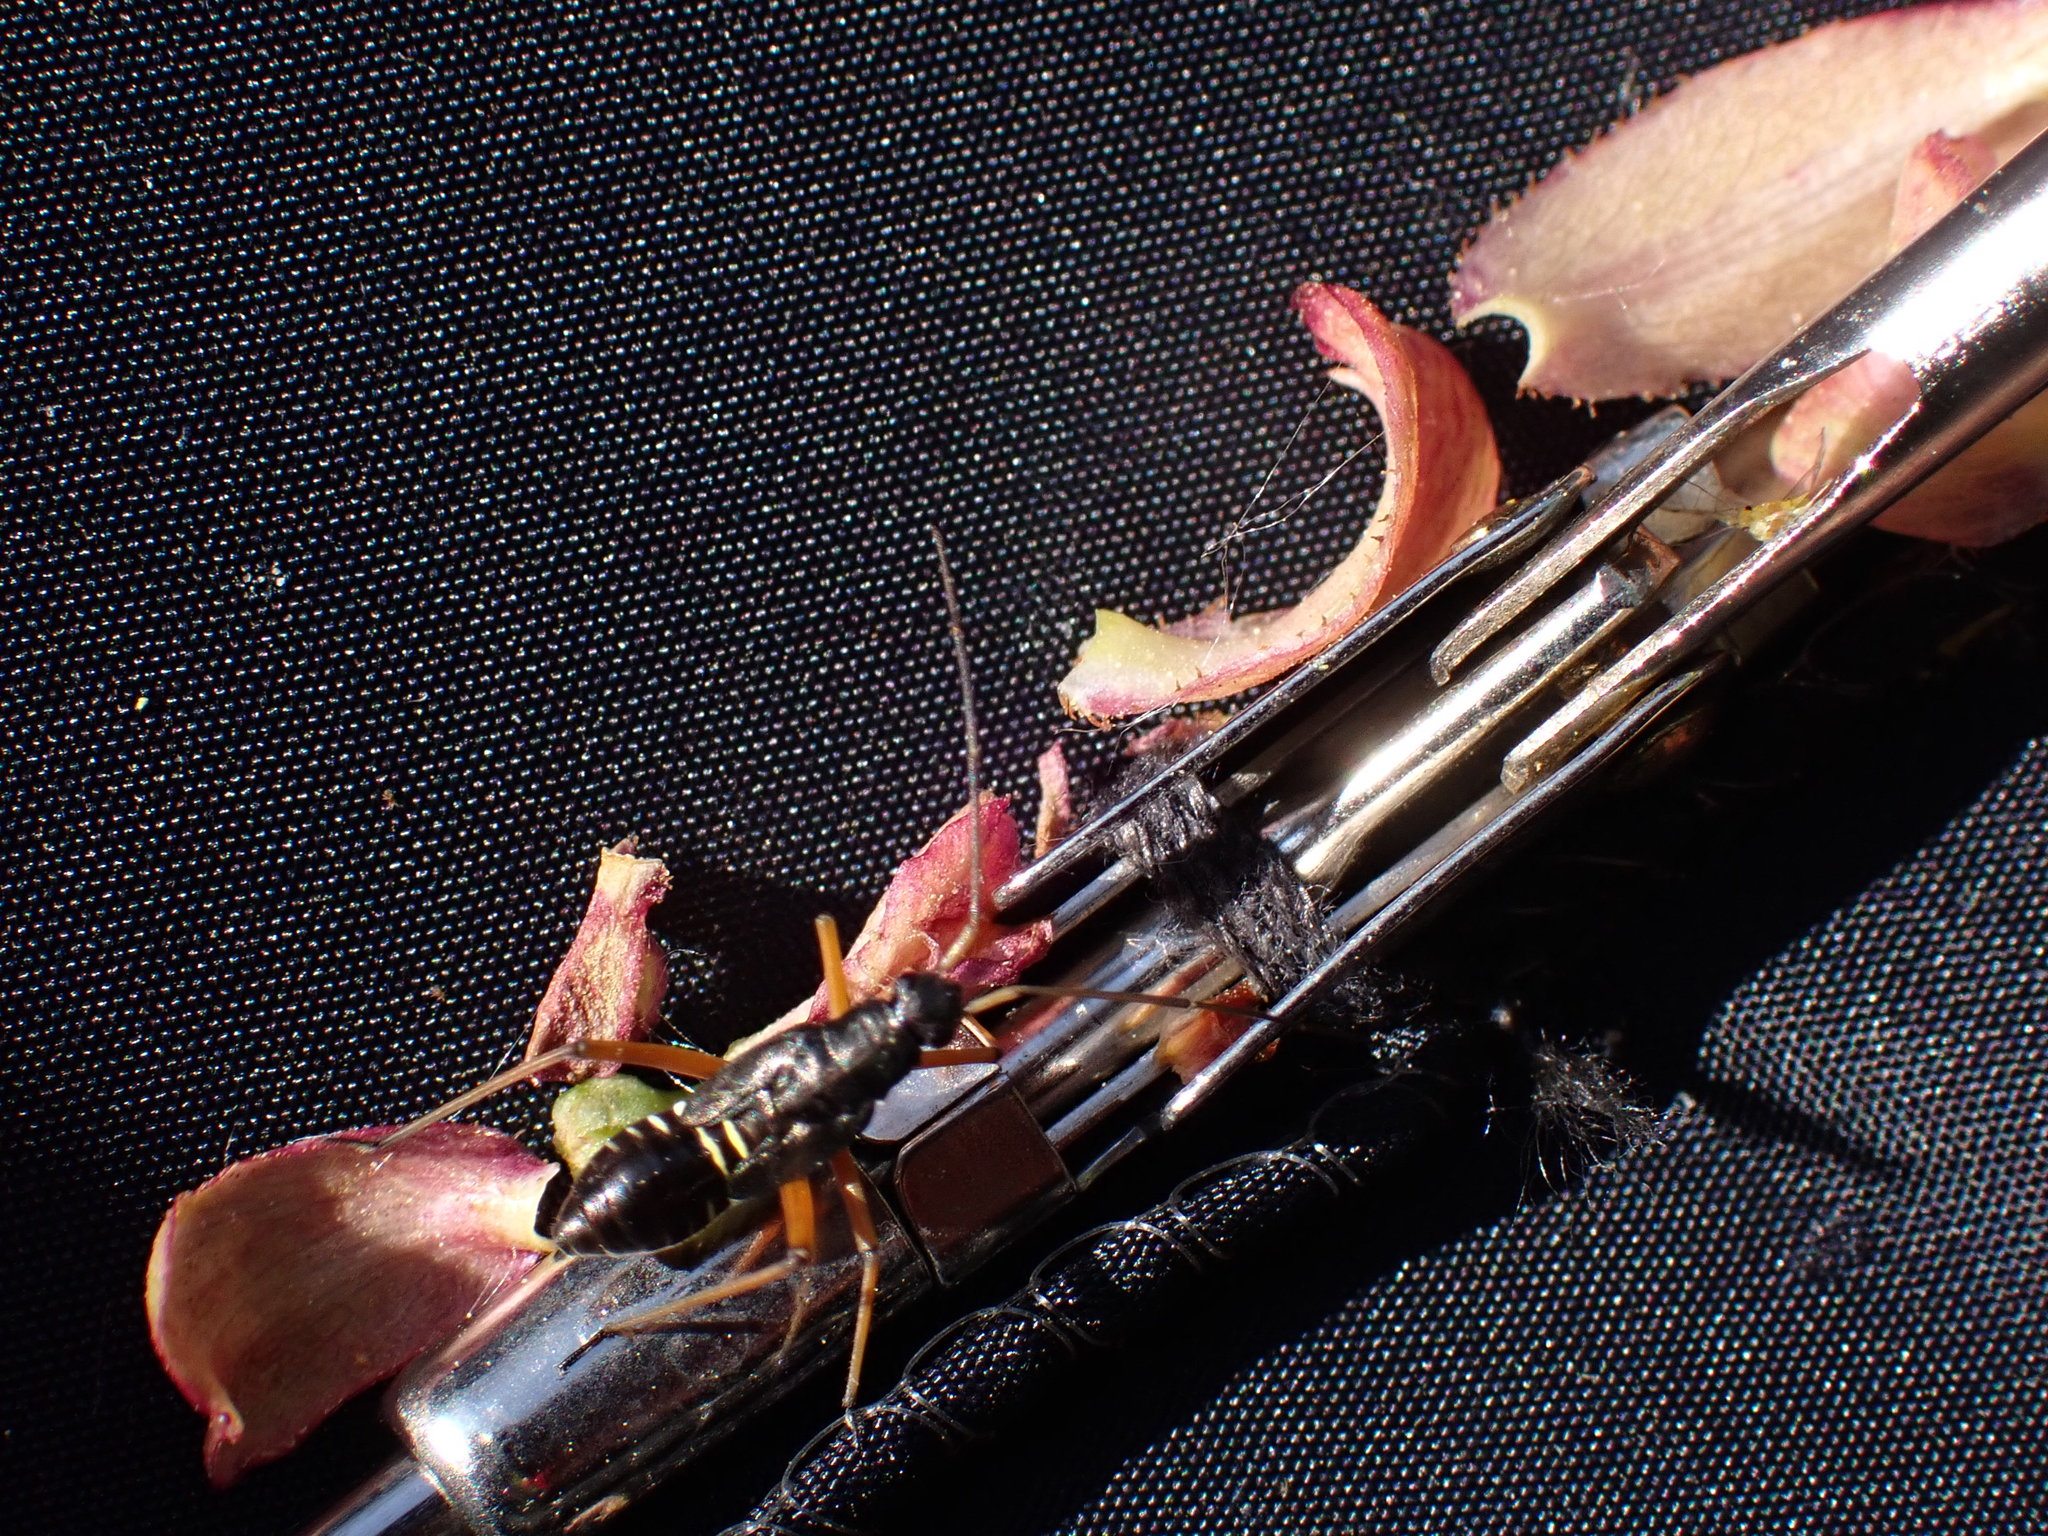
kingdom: Animalia
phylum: Arthropoda
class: Insecta
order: Hemiptera
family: Miridae
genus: Miris
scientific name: Miris striatus
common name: Fine streaked bugkin
